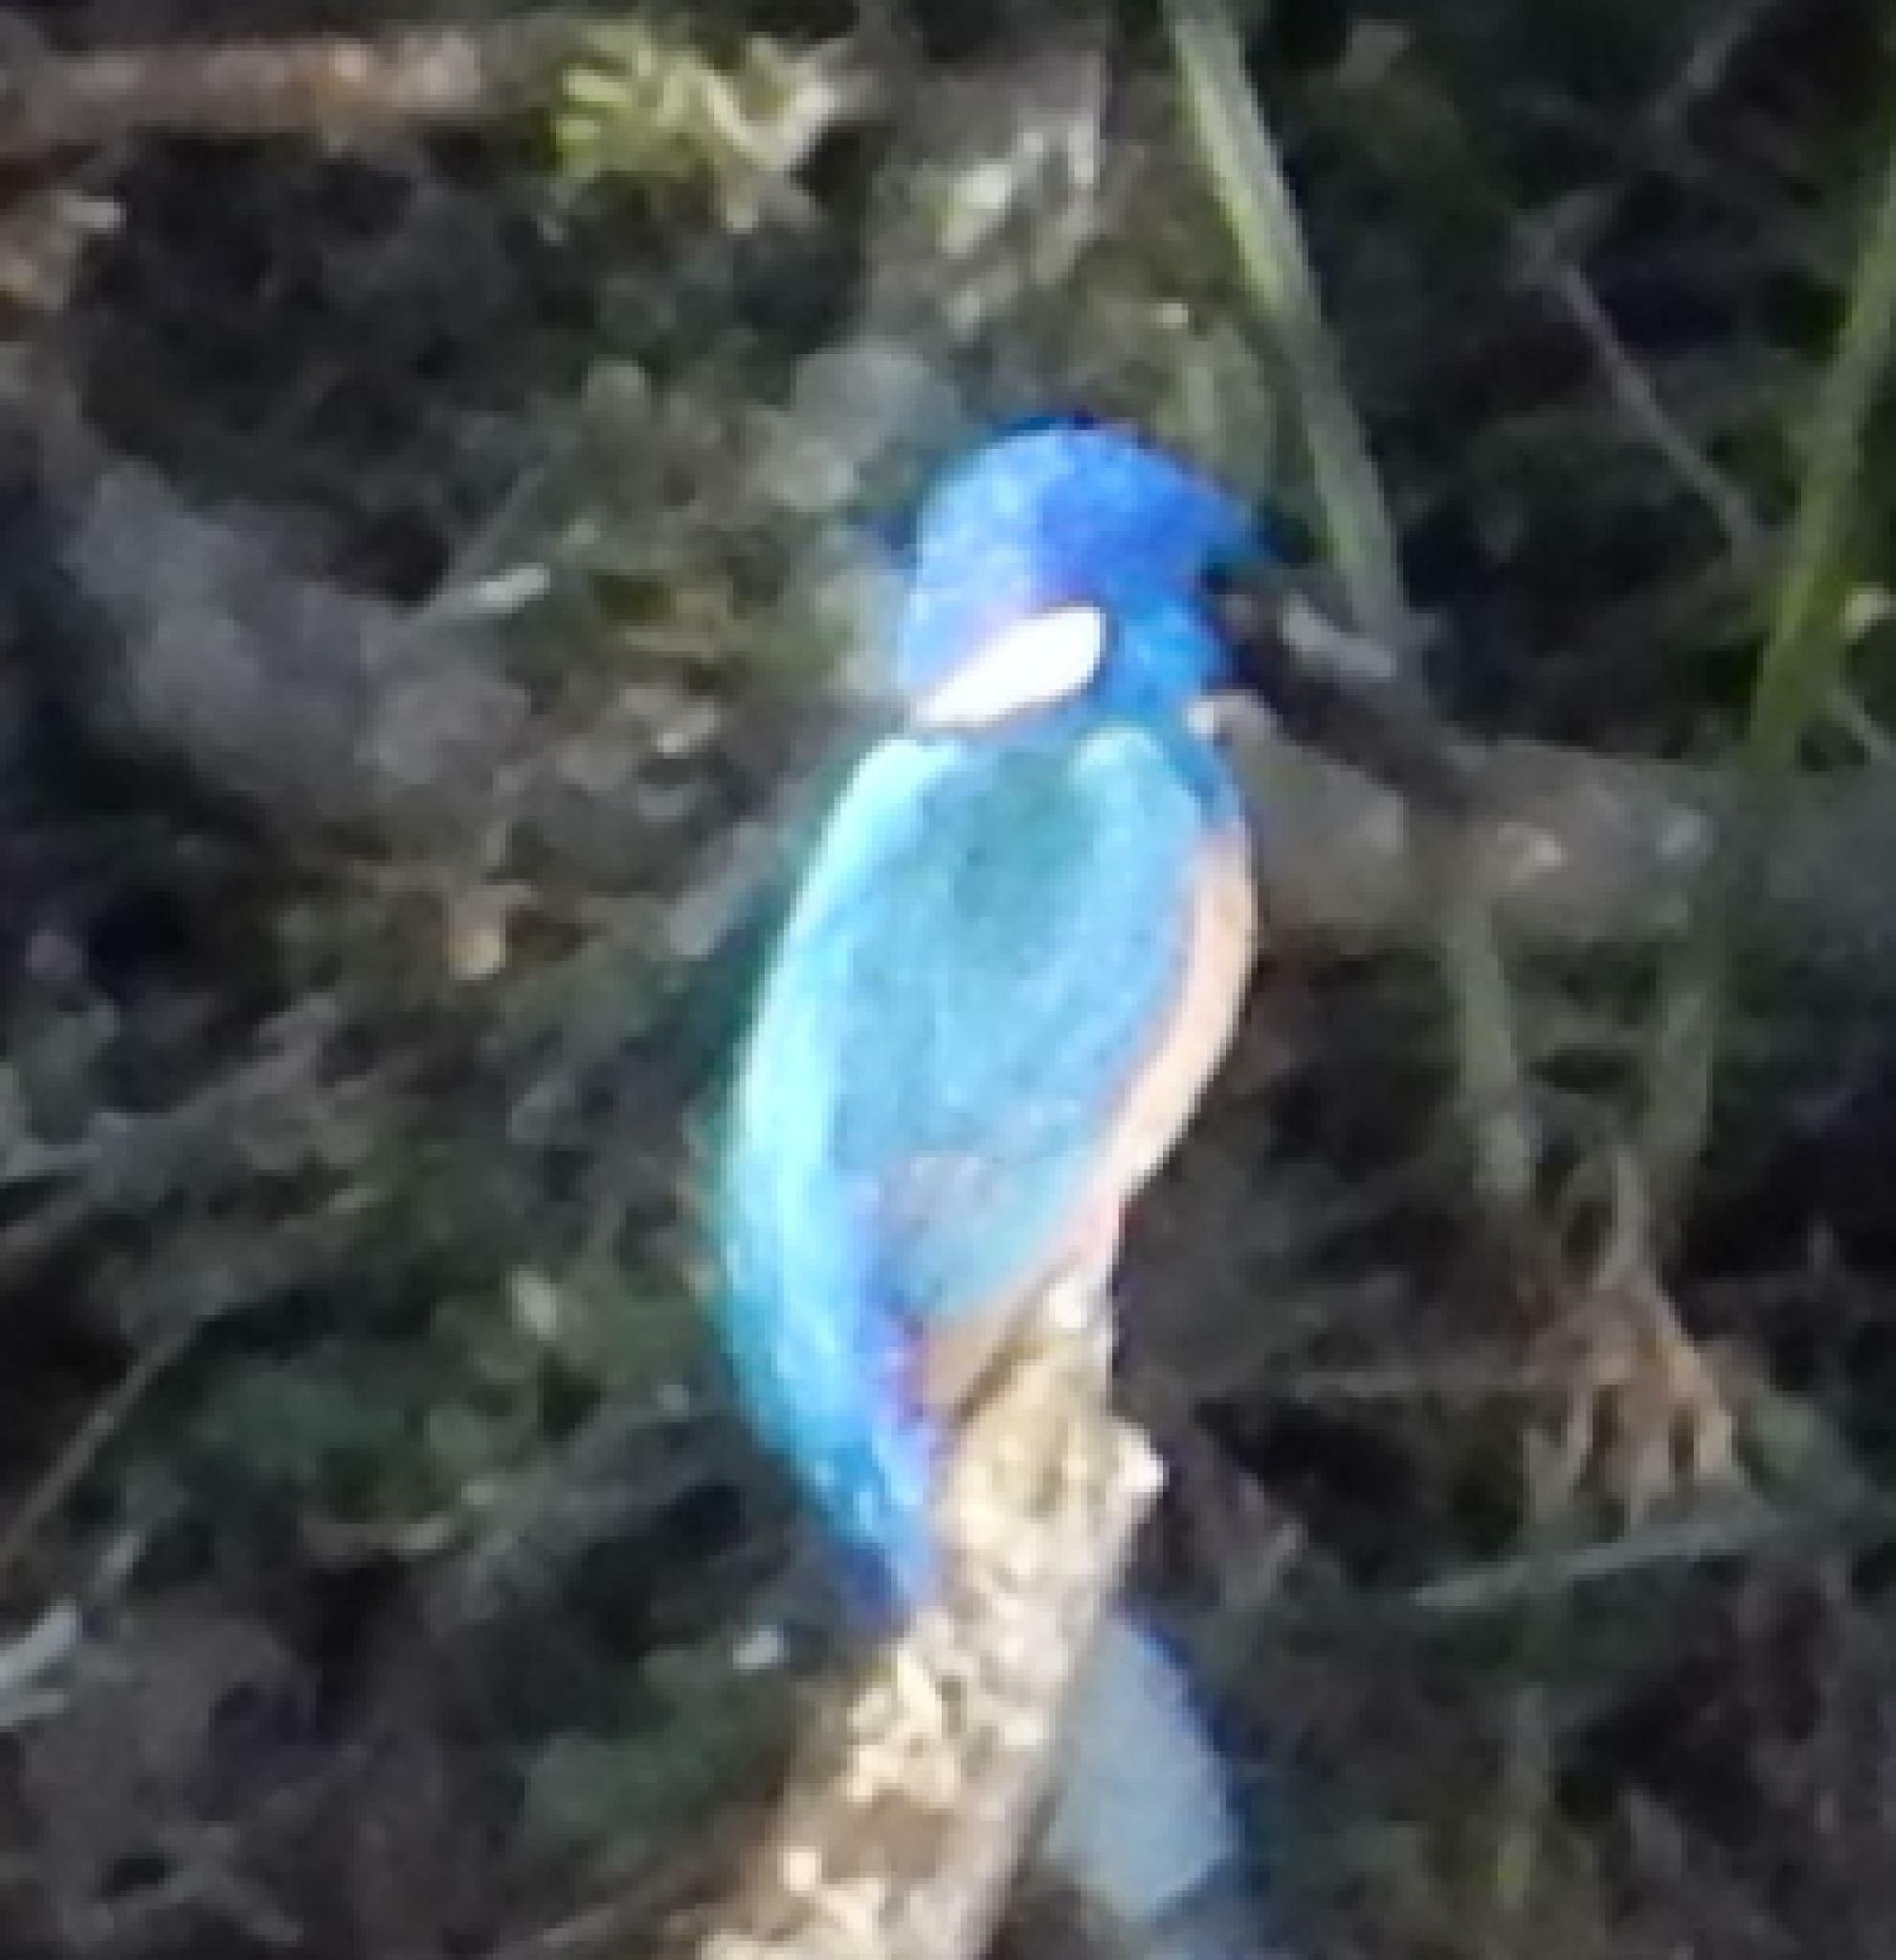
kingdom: Animalia
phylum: Chordata
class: Aves
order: Coraciiformes
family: Alcedinidae
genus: Alcedo
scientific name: Alcedo semitorquata
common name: Half-collared kingfisher
